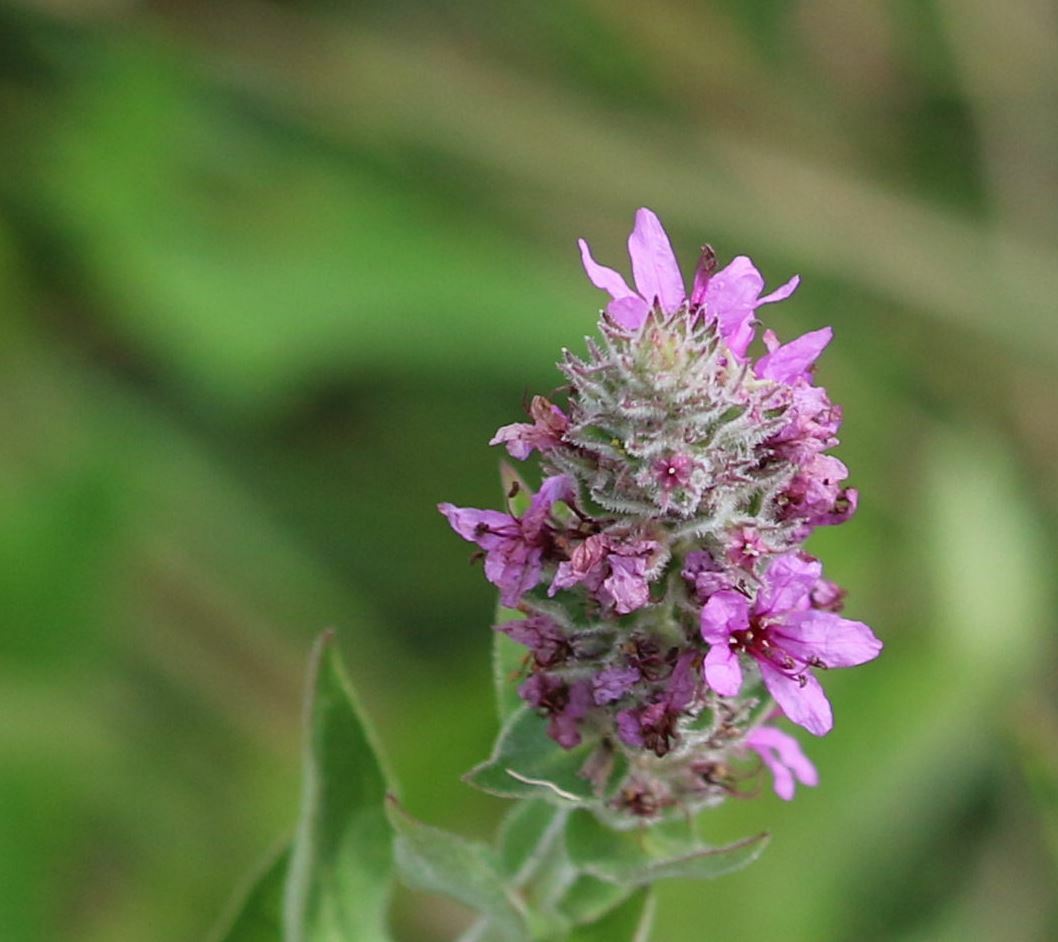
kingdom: Plantae
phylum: Tracheophyta
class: Magnoliopsida
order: Myrtales
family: Lythraceae
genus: Lythrum
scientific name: Lythrum salicaria
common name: Purple loosestrife
